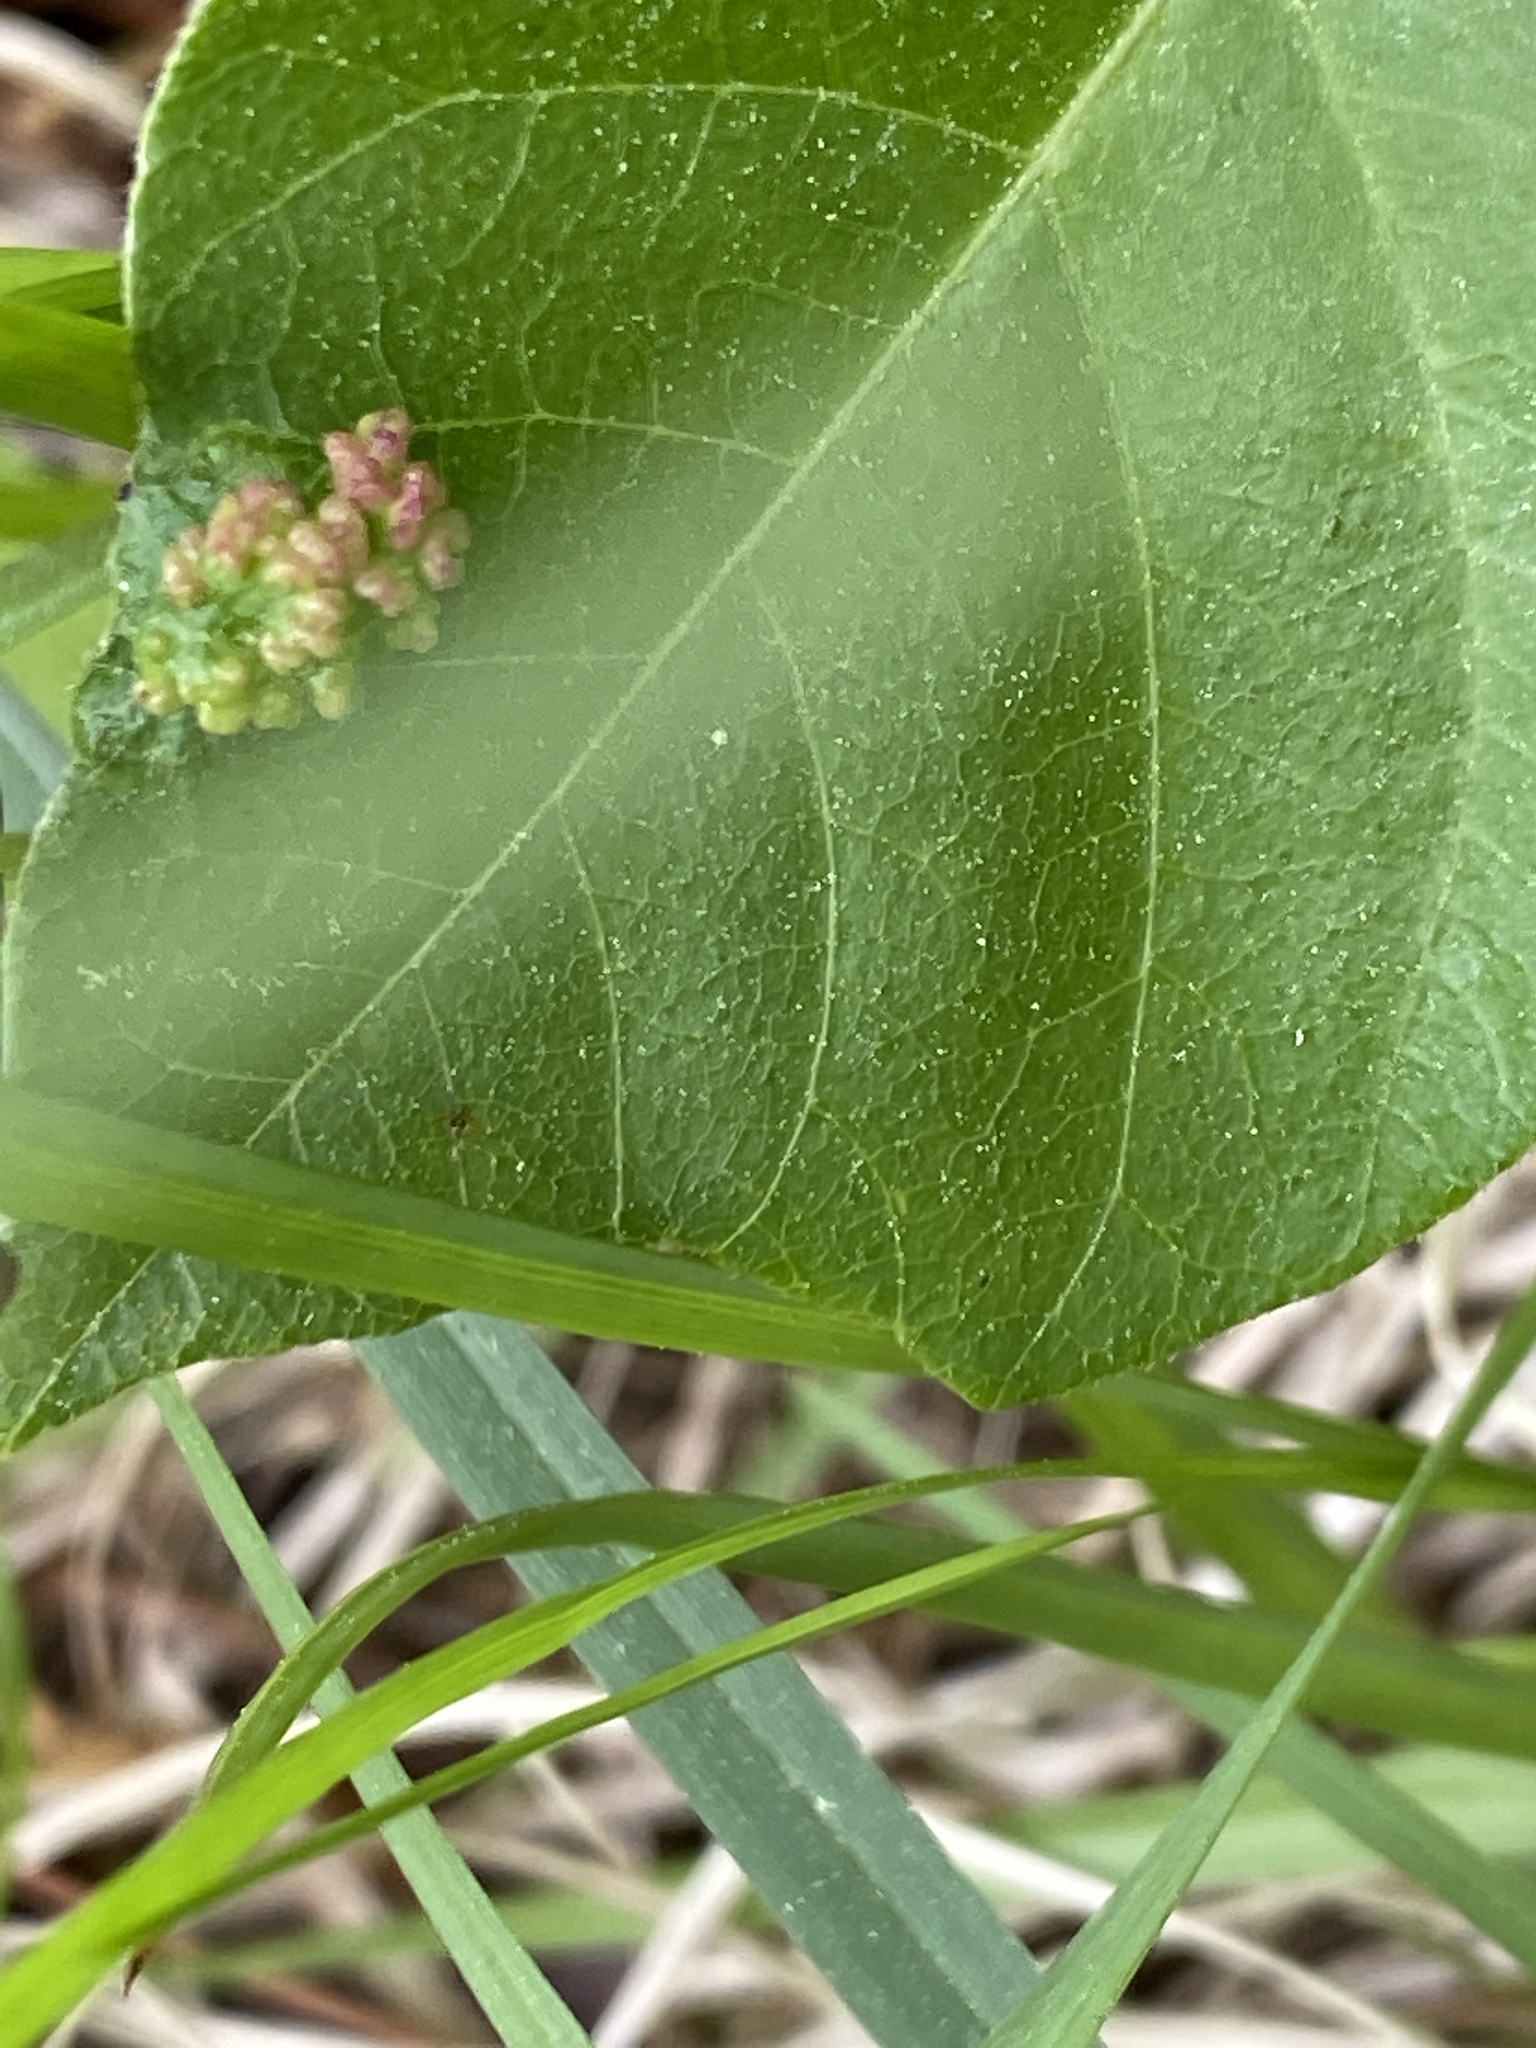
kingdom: Animalia
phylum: Arthropoda
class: Arachnida
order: Trombidiformes
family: Eriophyidae
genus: Aculops
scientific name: Aculops
